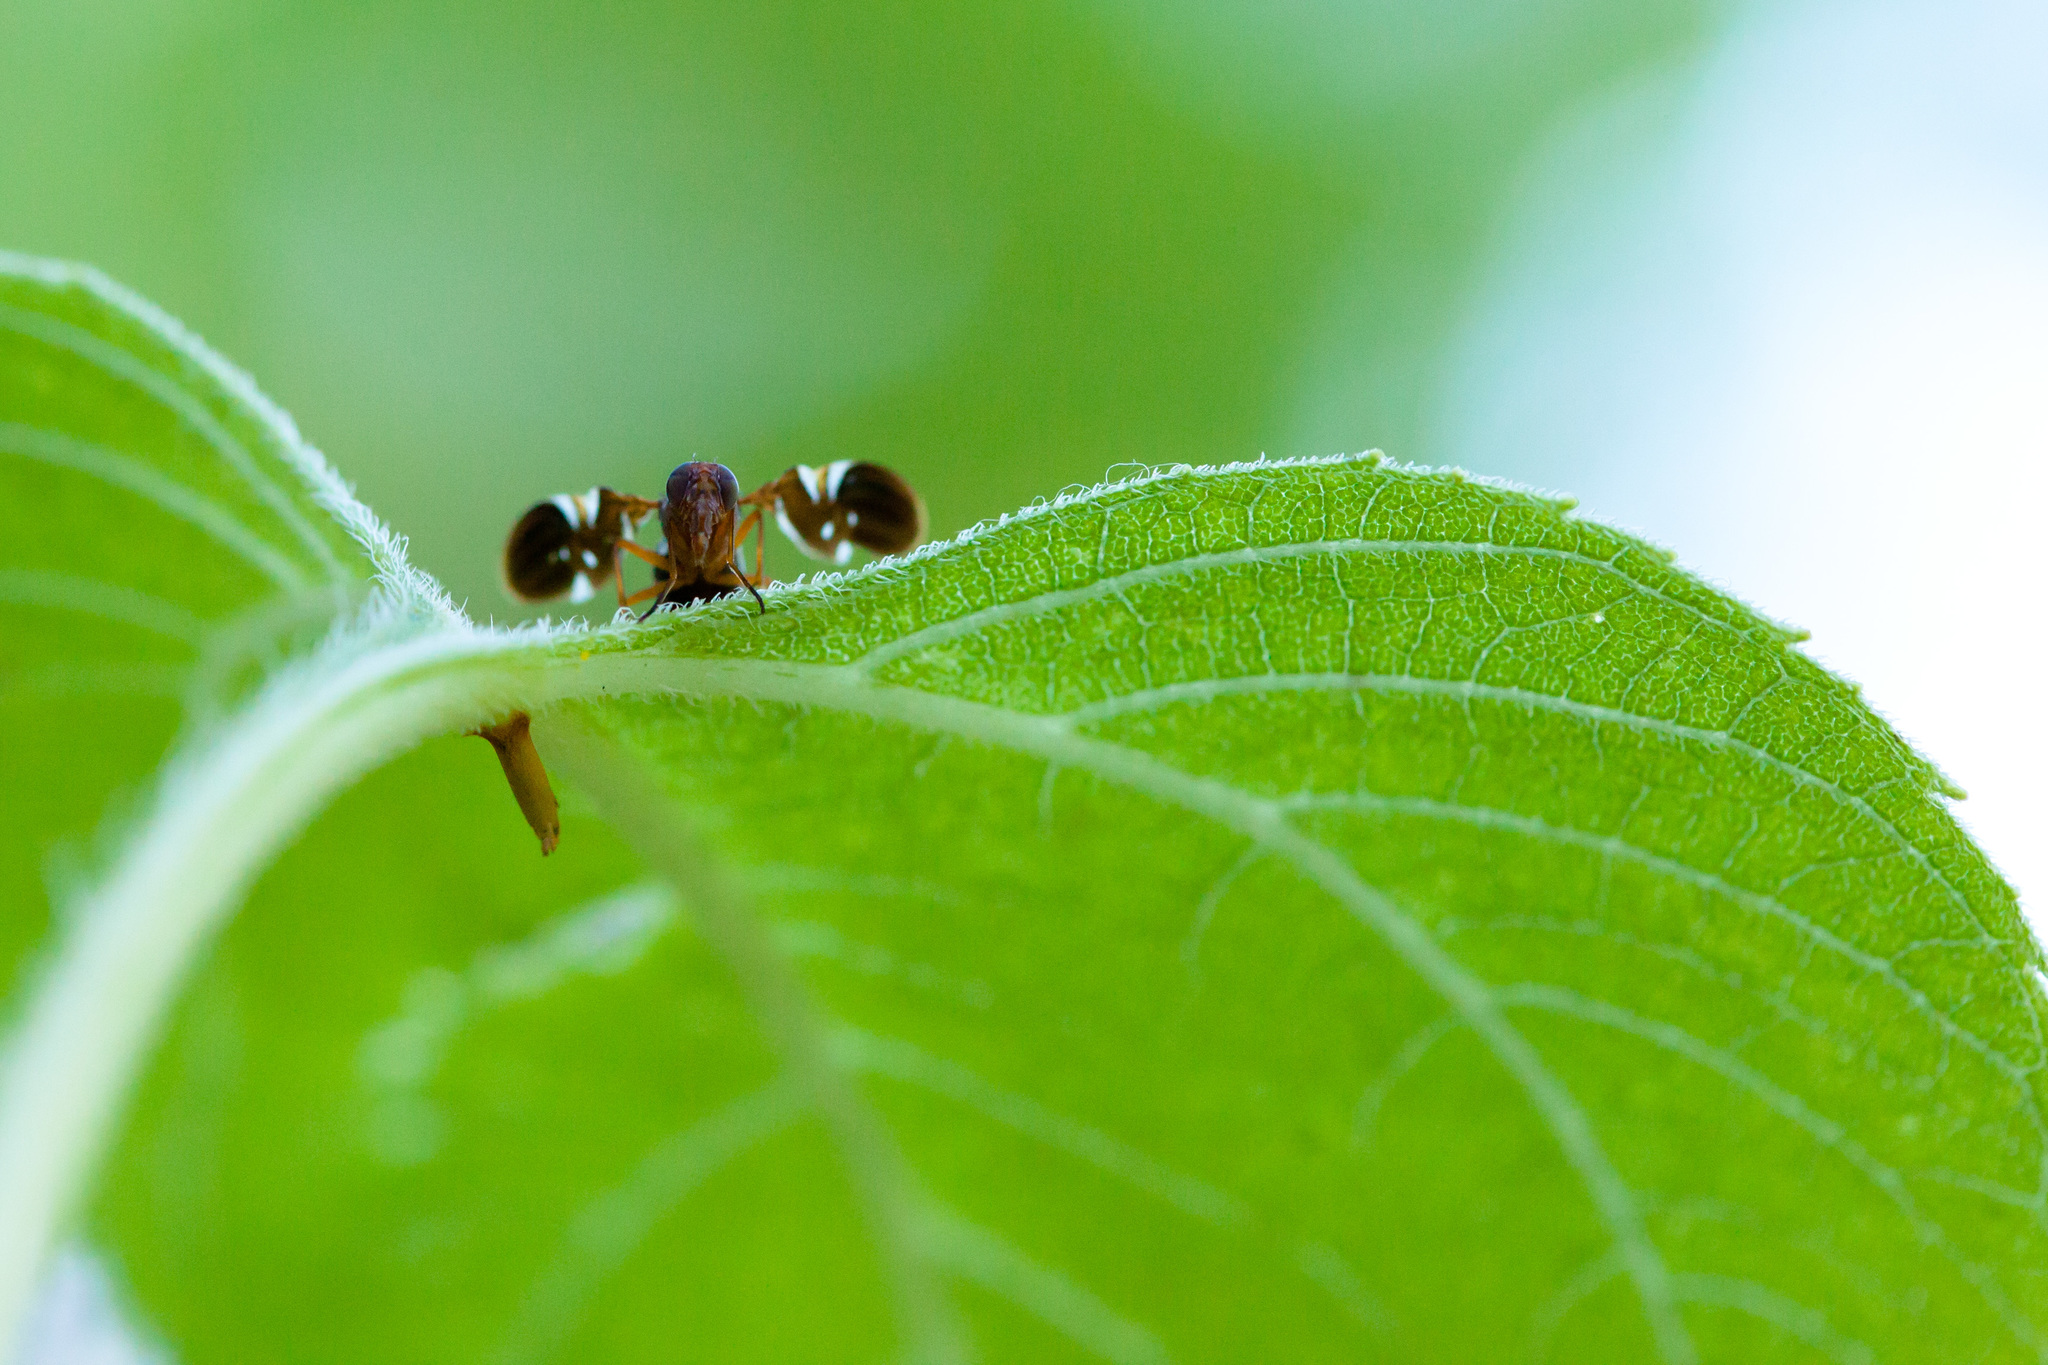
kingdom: Animalia
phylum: Arthropoda
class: Insecta
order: Diptera
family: Ulidiidae
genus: Delphinia
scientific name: Delphinia picta
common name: Common picture-winged fly
